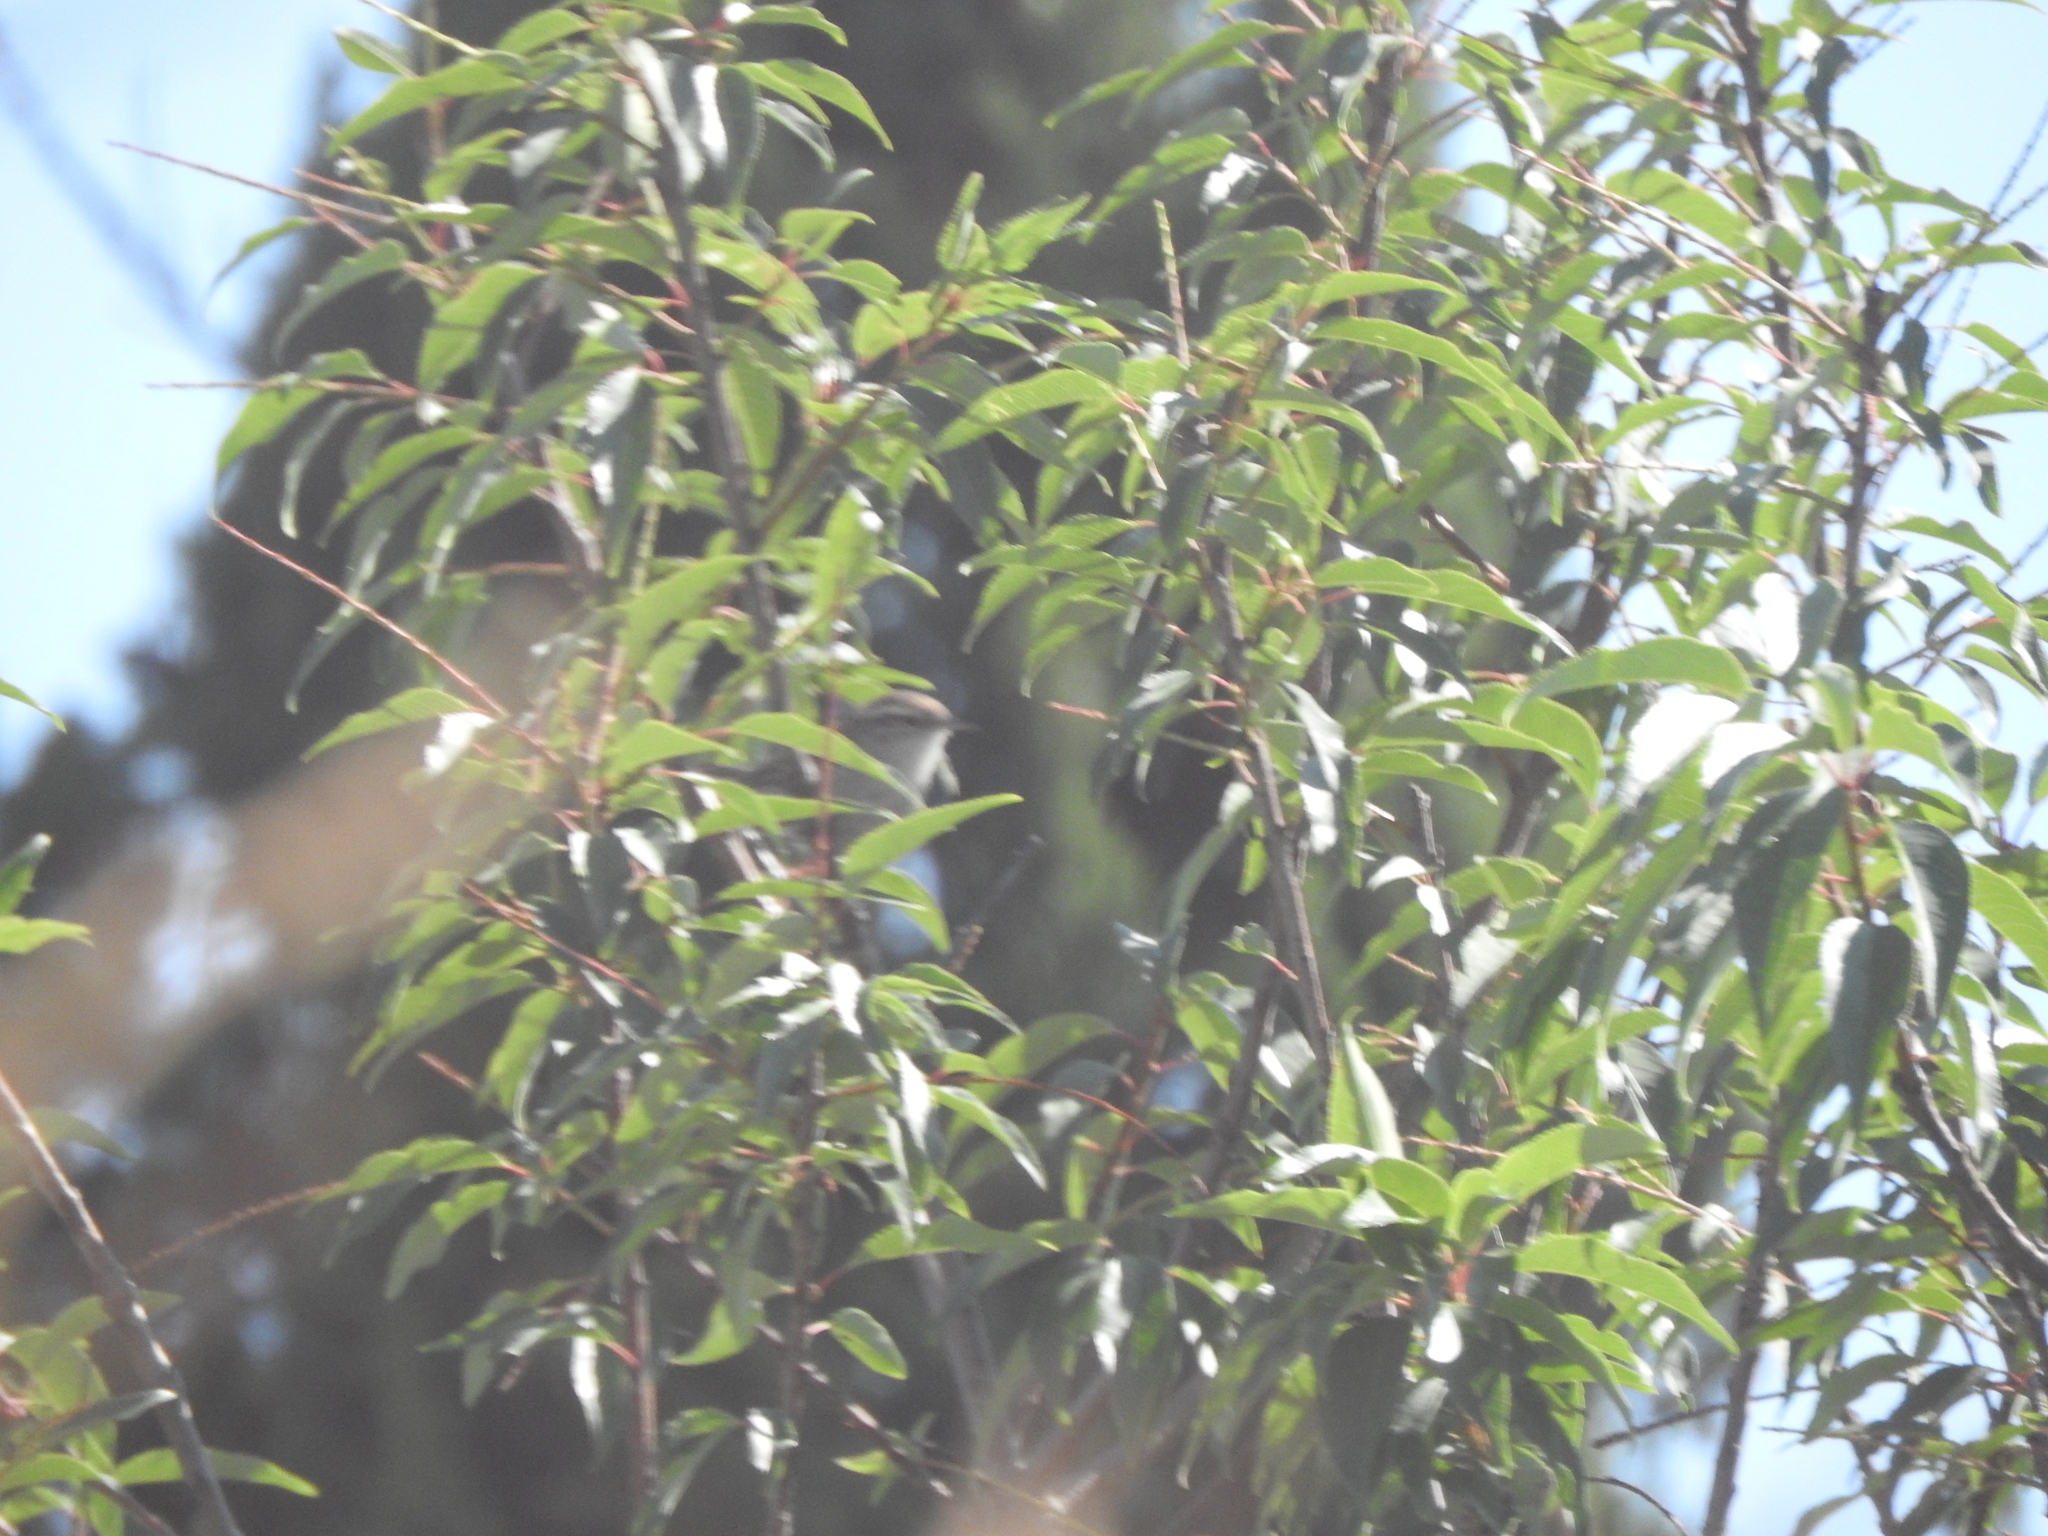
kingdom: Animalia
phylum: Chordata
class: Aves
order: Passeriformes
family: Troglodytidae
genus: Thryomanes
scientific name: Thryomanes bewickii
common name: Bewick's wren
